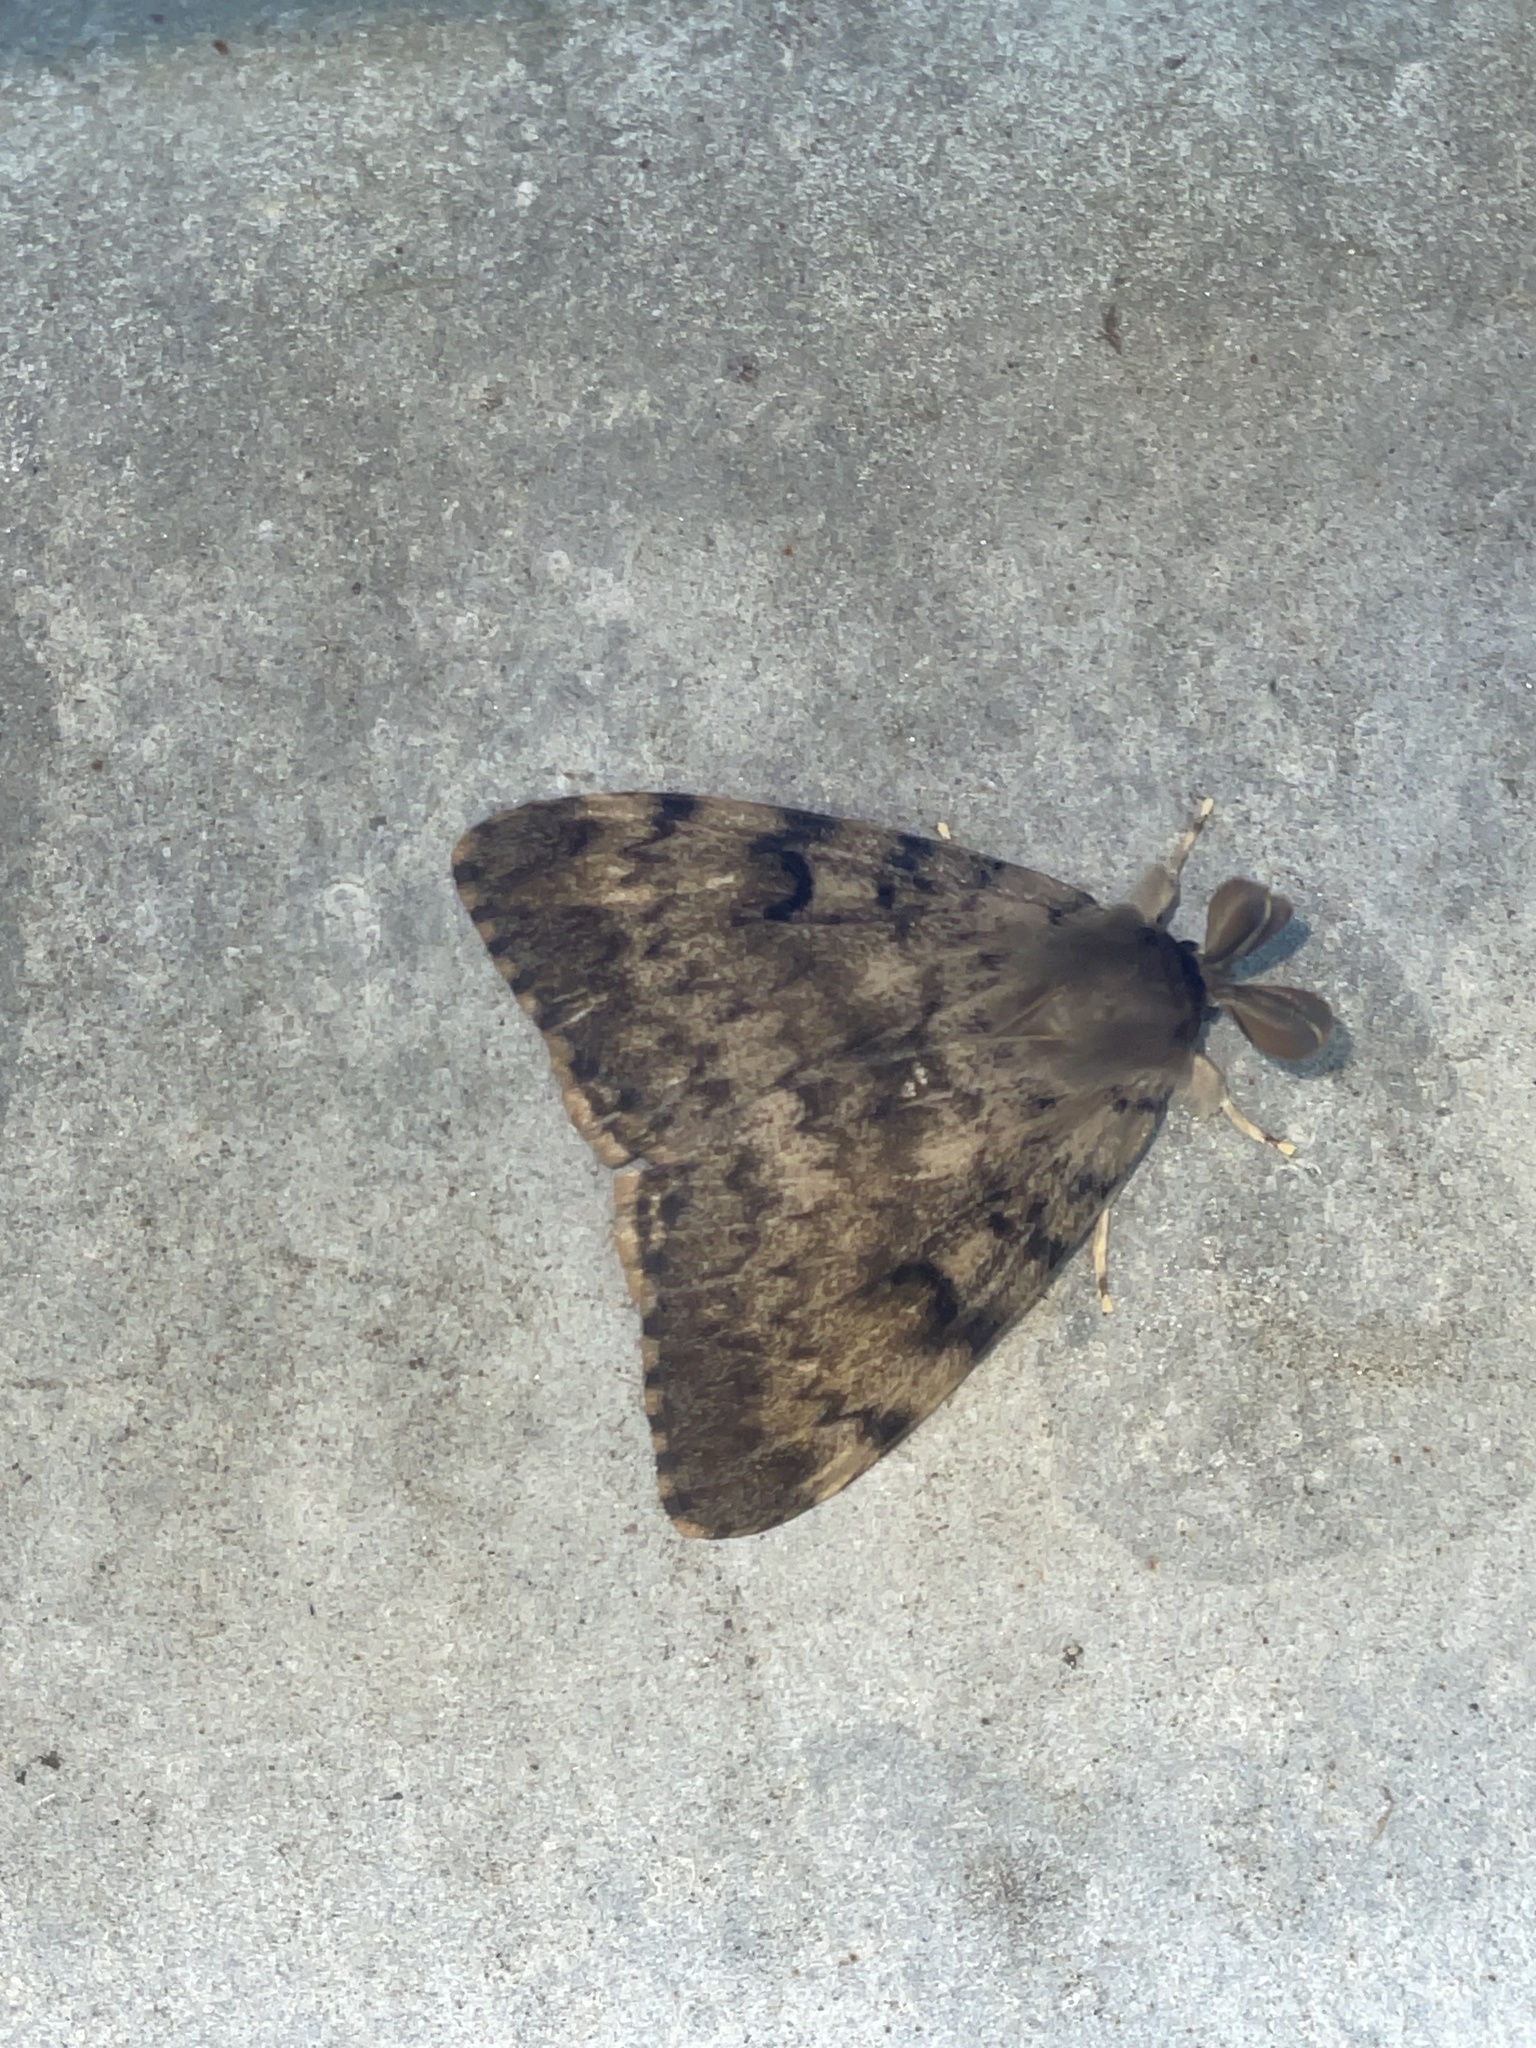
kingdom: Animalia
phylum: Arthropoda
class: Insecta
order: Lepidoptera
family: Erebidae
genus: Lymantria
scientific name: Lymantria dispar
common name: Gypsy moth
